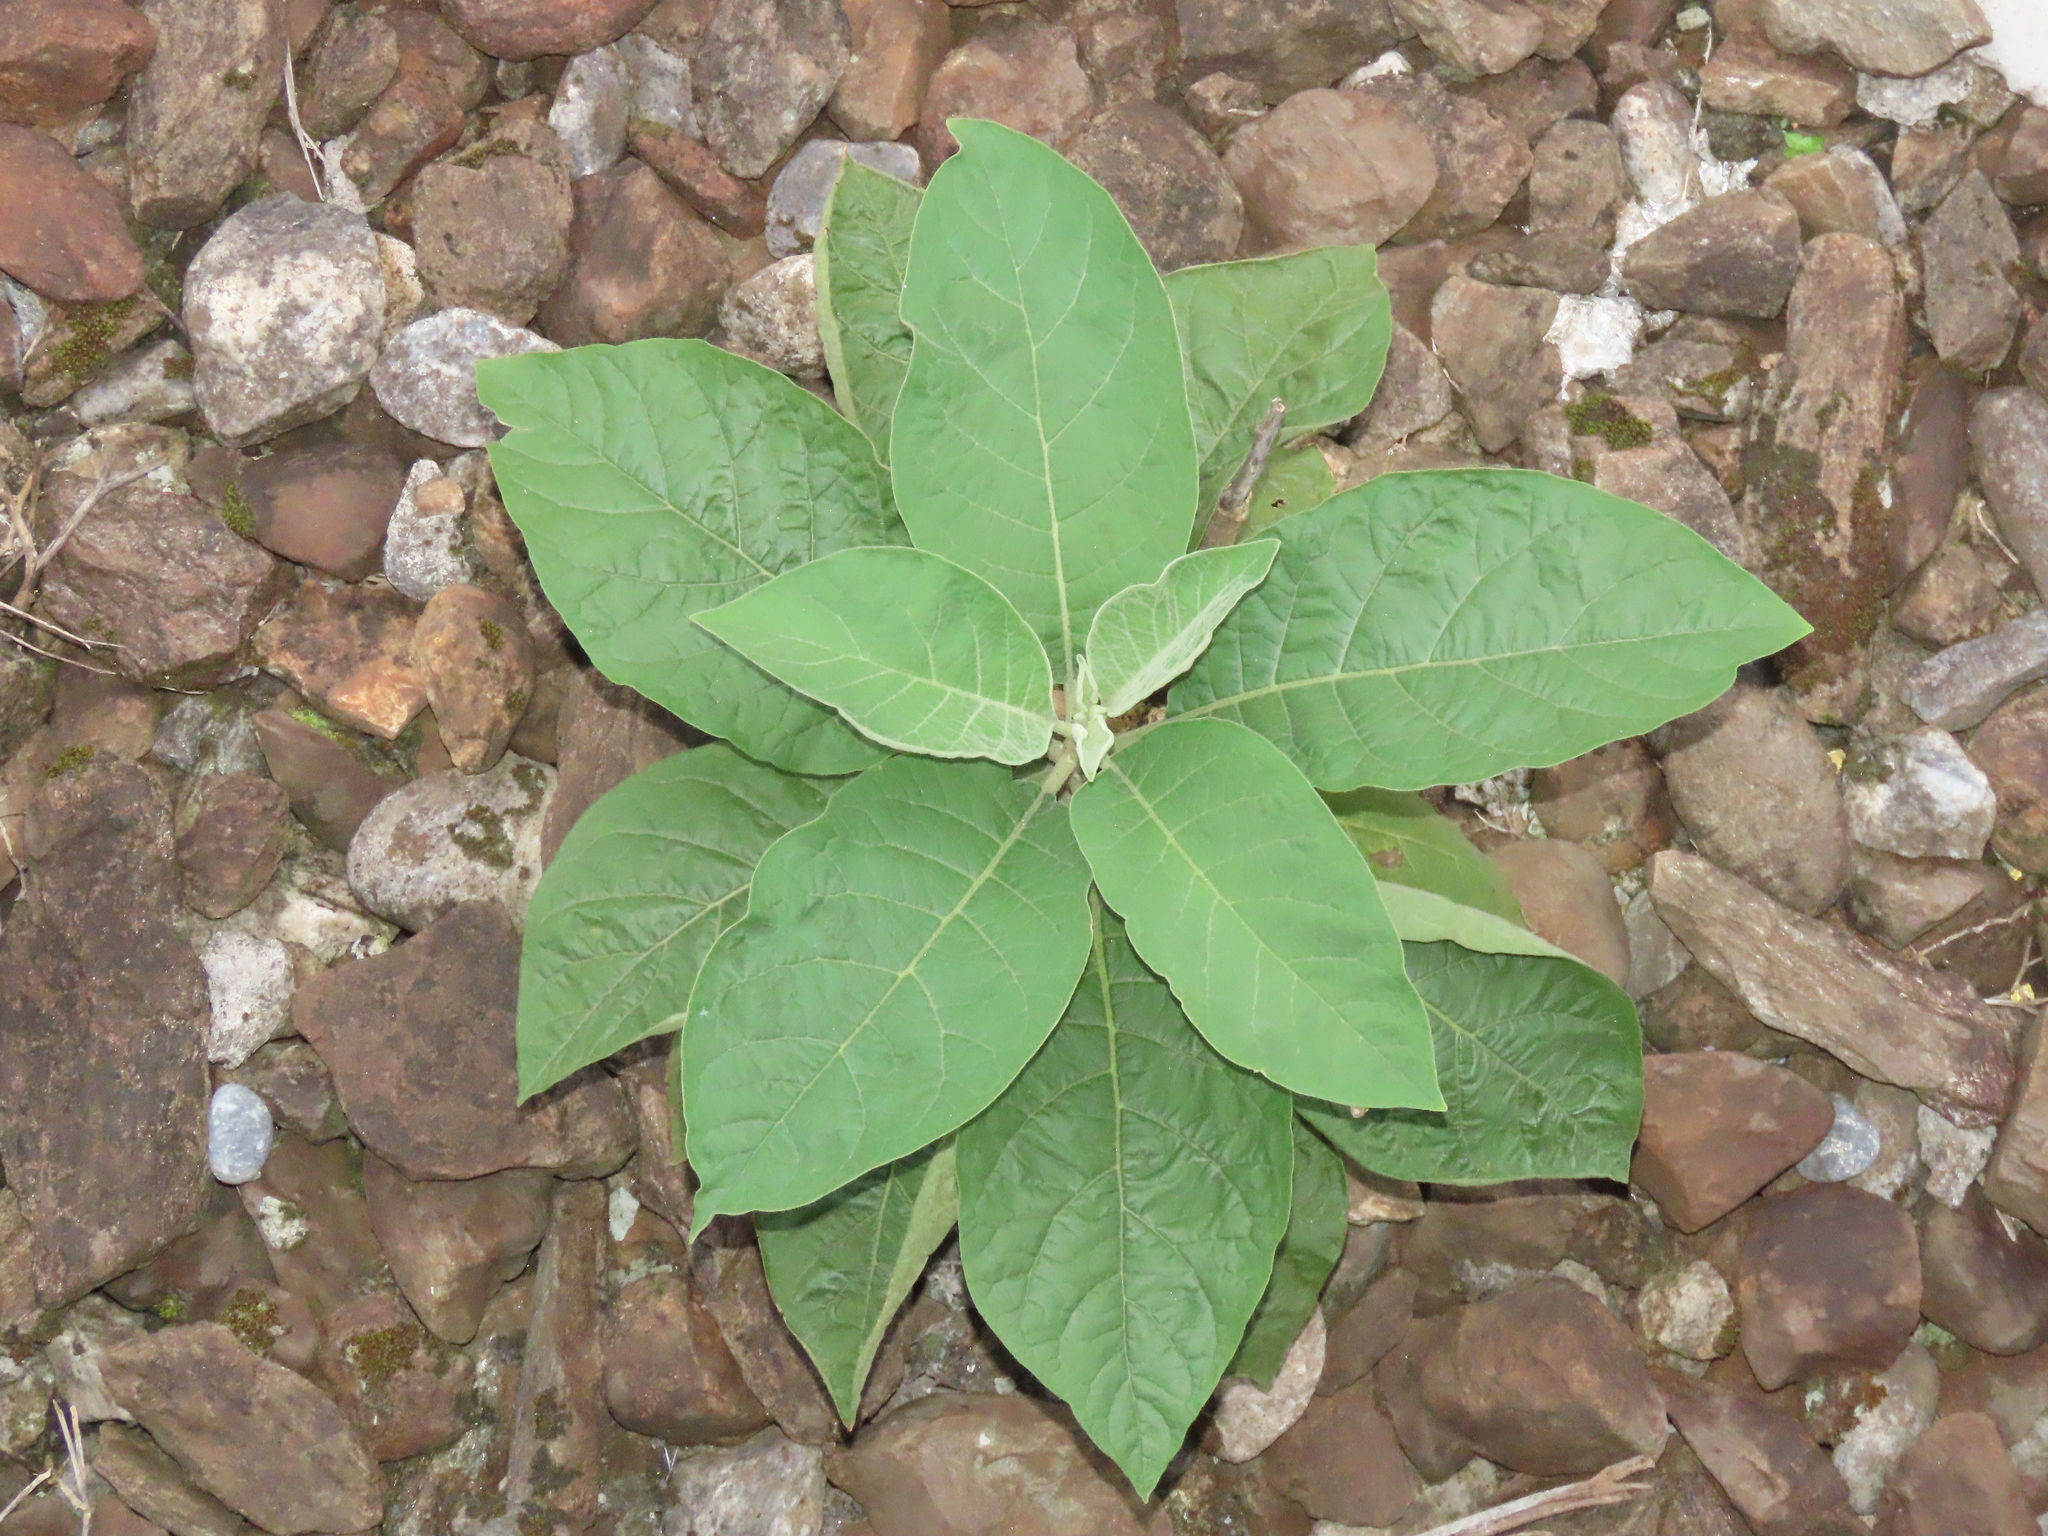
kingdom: Plantae
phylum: Tracheophyta
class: Magnoliopsida
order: Solanales
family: Solanaceae
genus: Solanum
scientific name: Solanum erianthum
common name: Tobacco-tree
